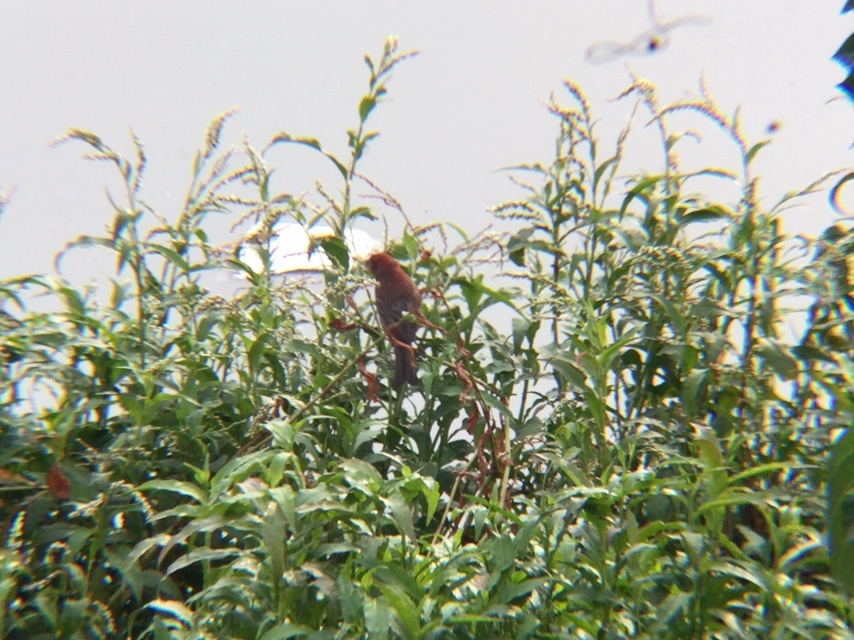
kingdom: Animalia
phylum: Chordata
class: Aves
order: Passeriformes
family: Fringillidae
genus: Haemorhous
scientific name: Haemorhous mexicanus
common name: House finch
